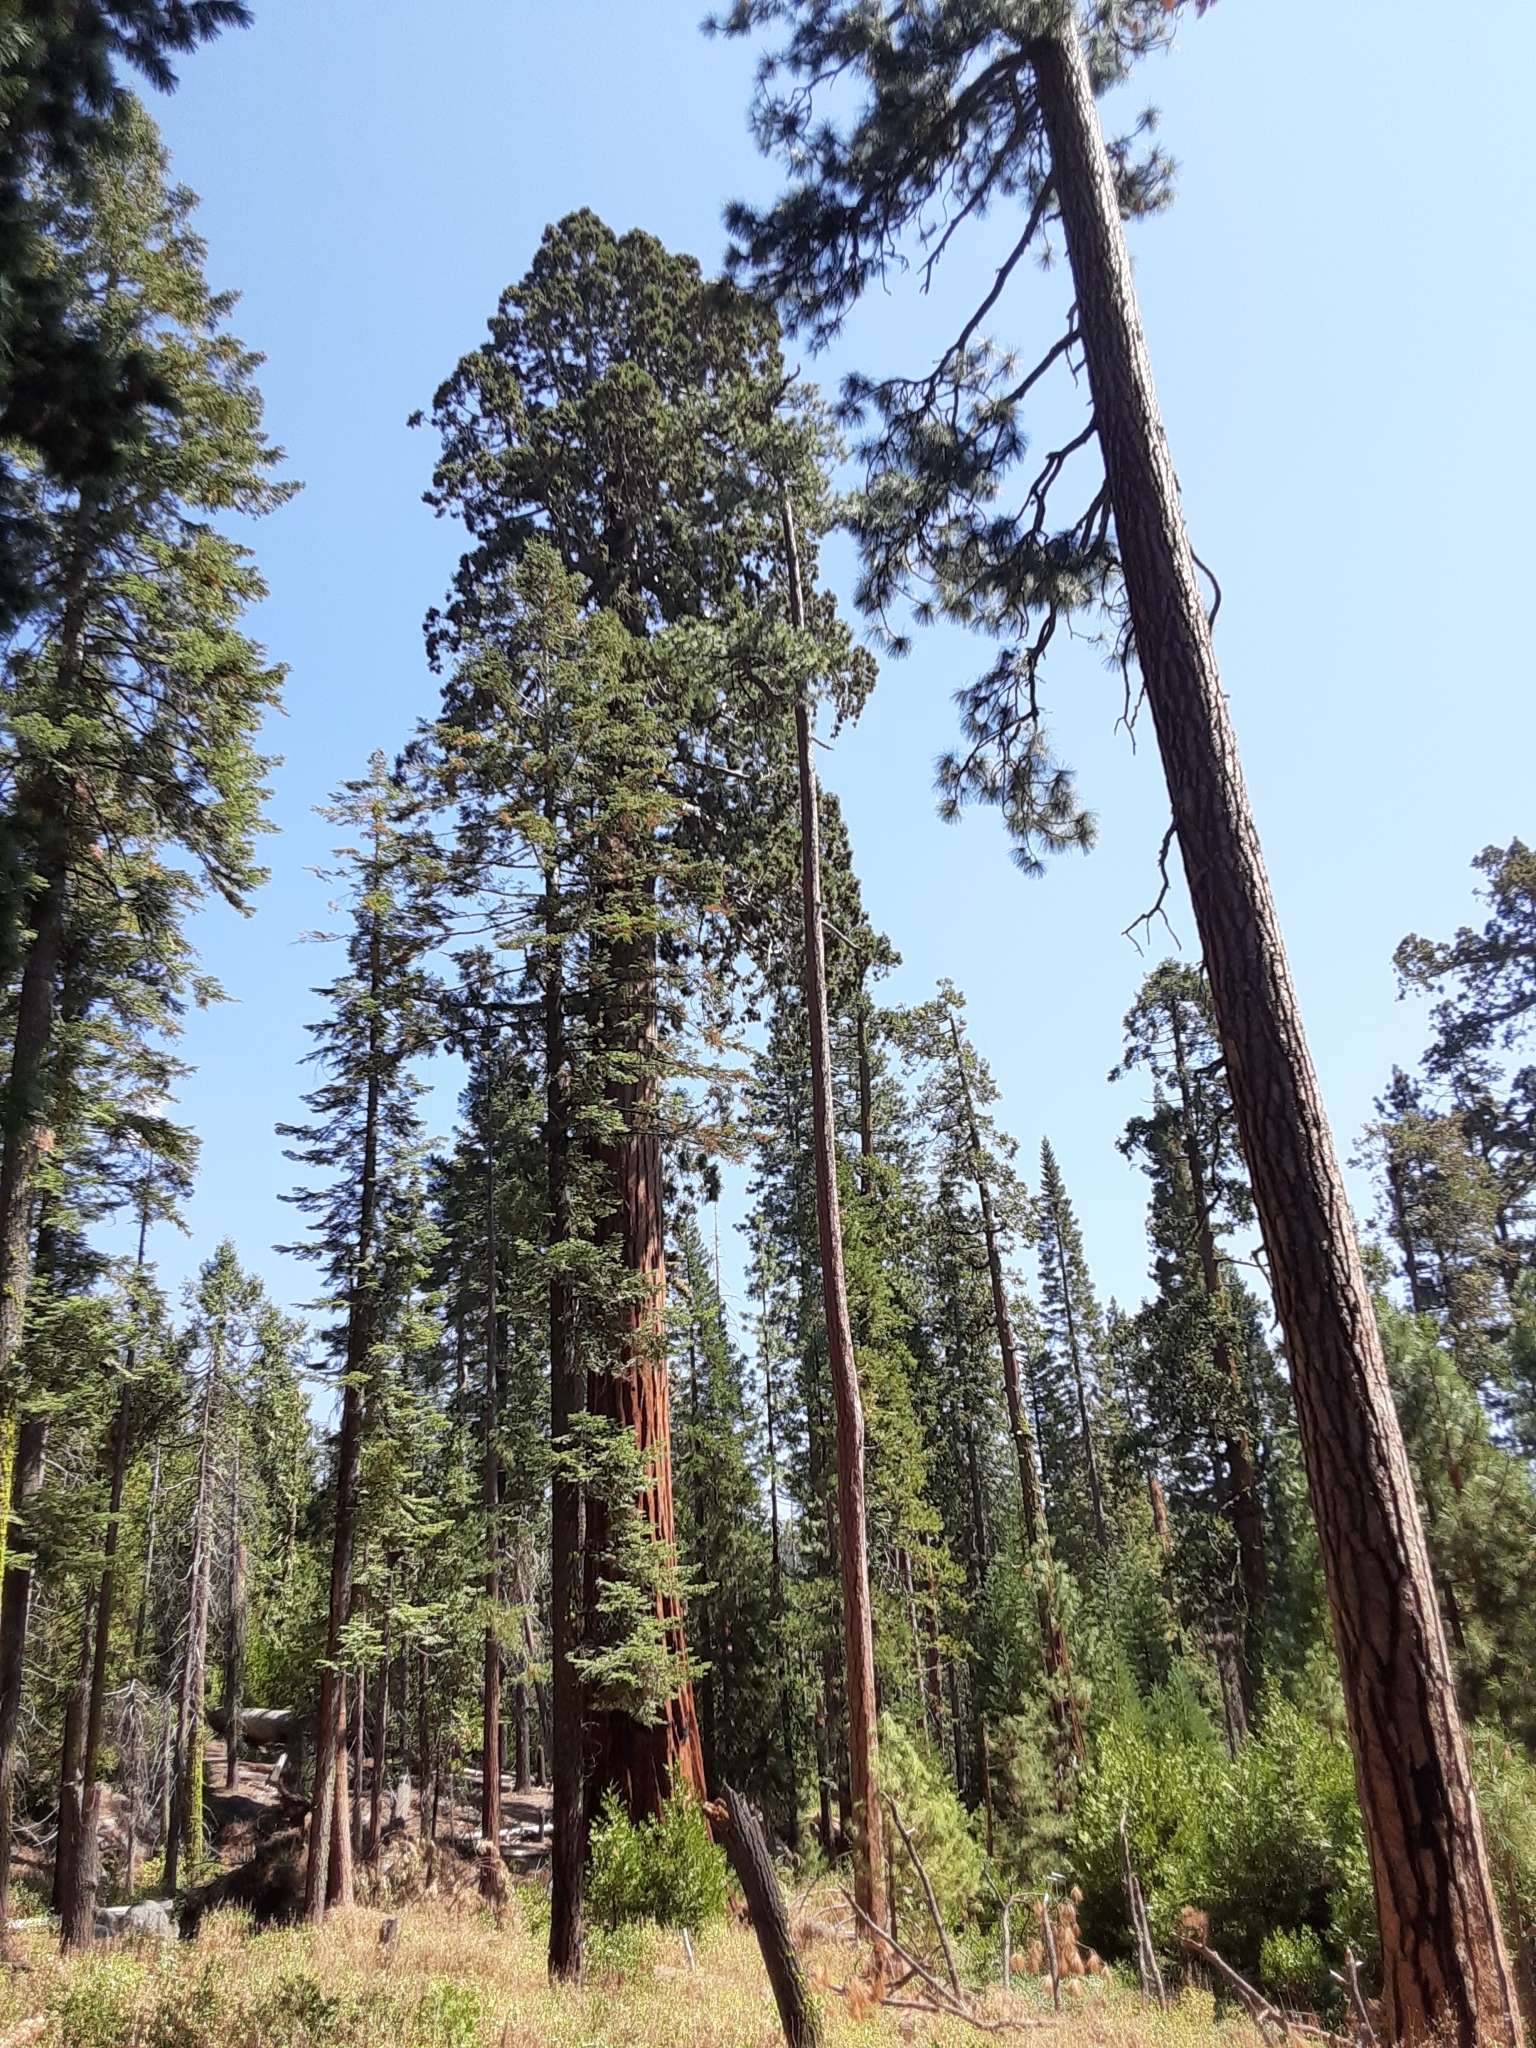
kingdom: Plantae
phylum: Tracheophyta
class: Pinopsida
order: Pinales
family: Cupressaceae
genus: Sequoiadendron
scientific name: Sequoiadendron giganteum
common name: Wellingtonia
